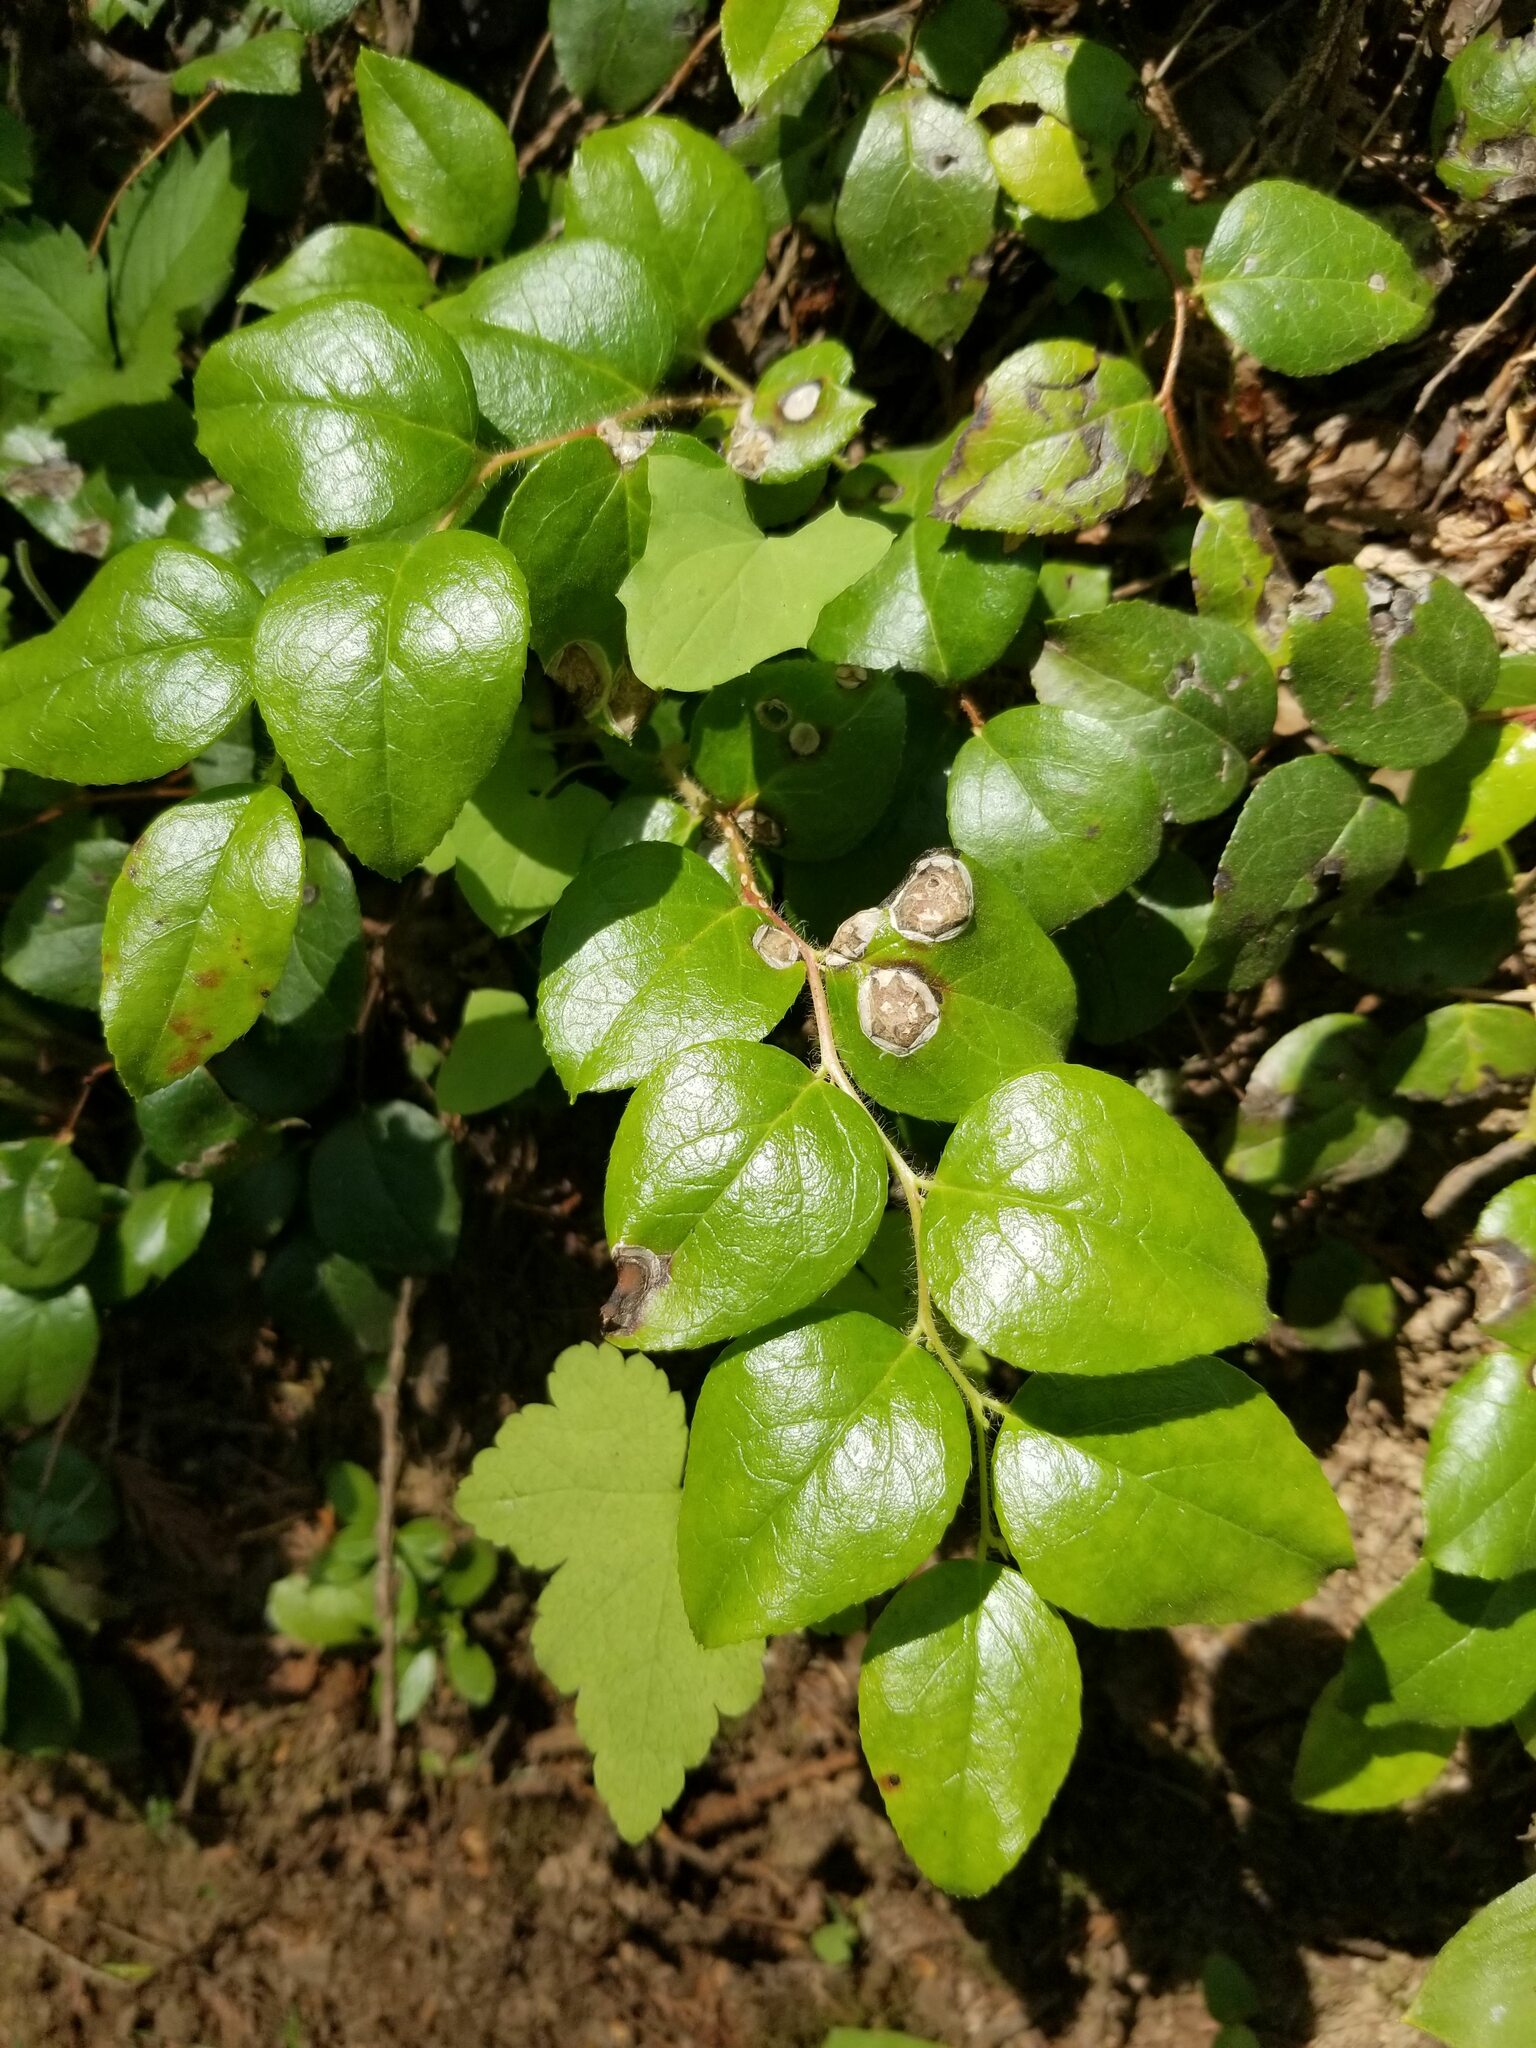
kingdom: Plantae
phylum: Tracheophyta
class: Magnoliopsida
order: Ericales
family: Ericaceae
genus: Gaultheria
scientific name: Gaultheria ovatifolia
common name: Oregon wintergreen
